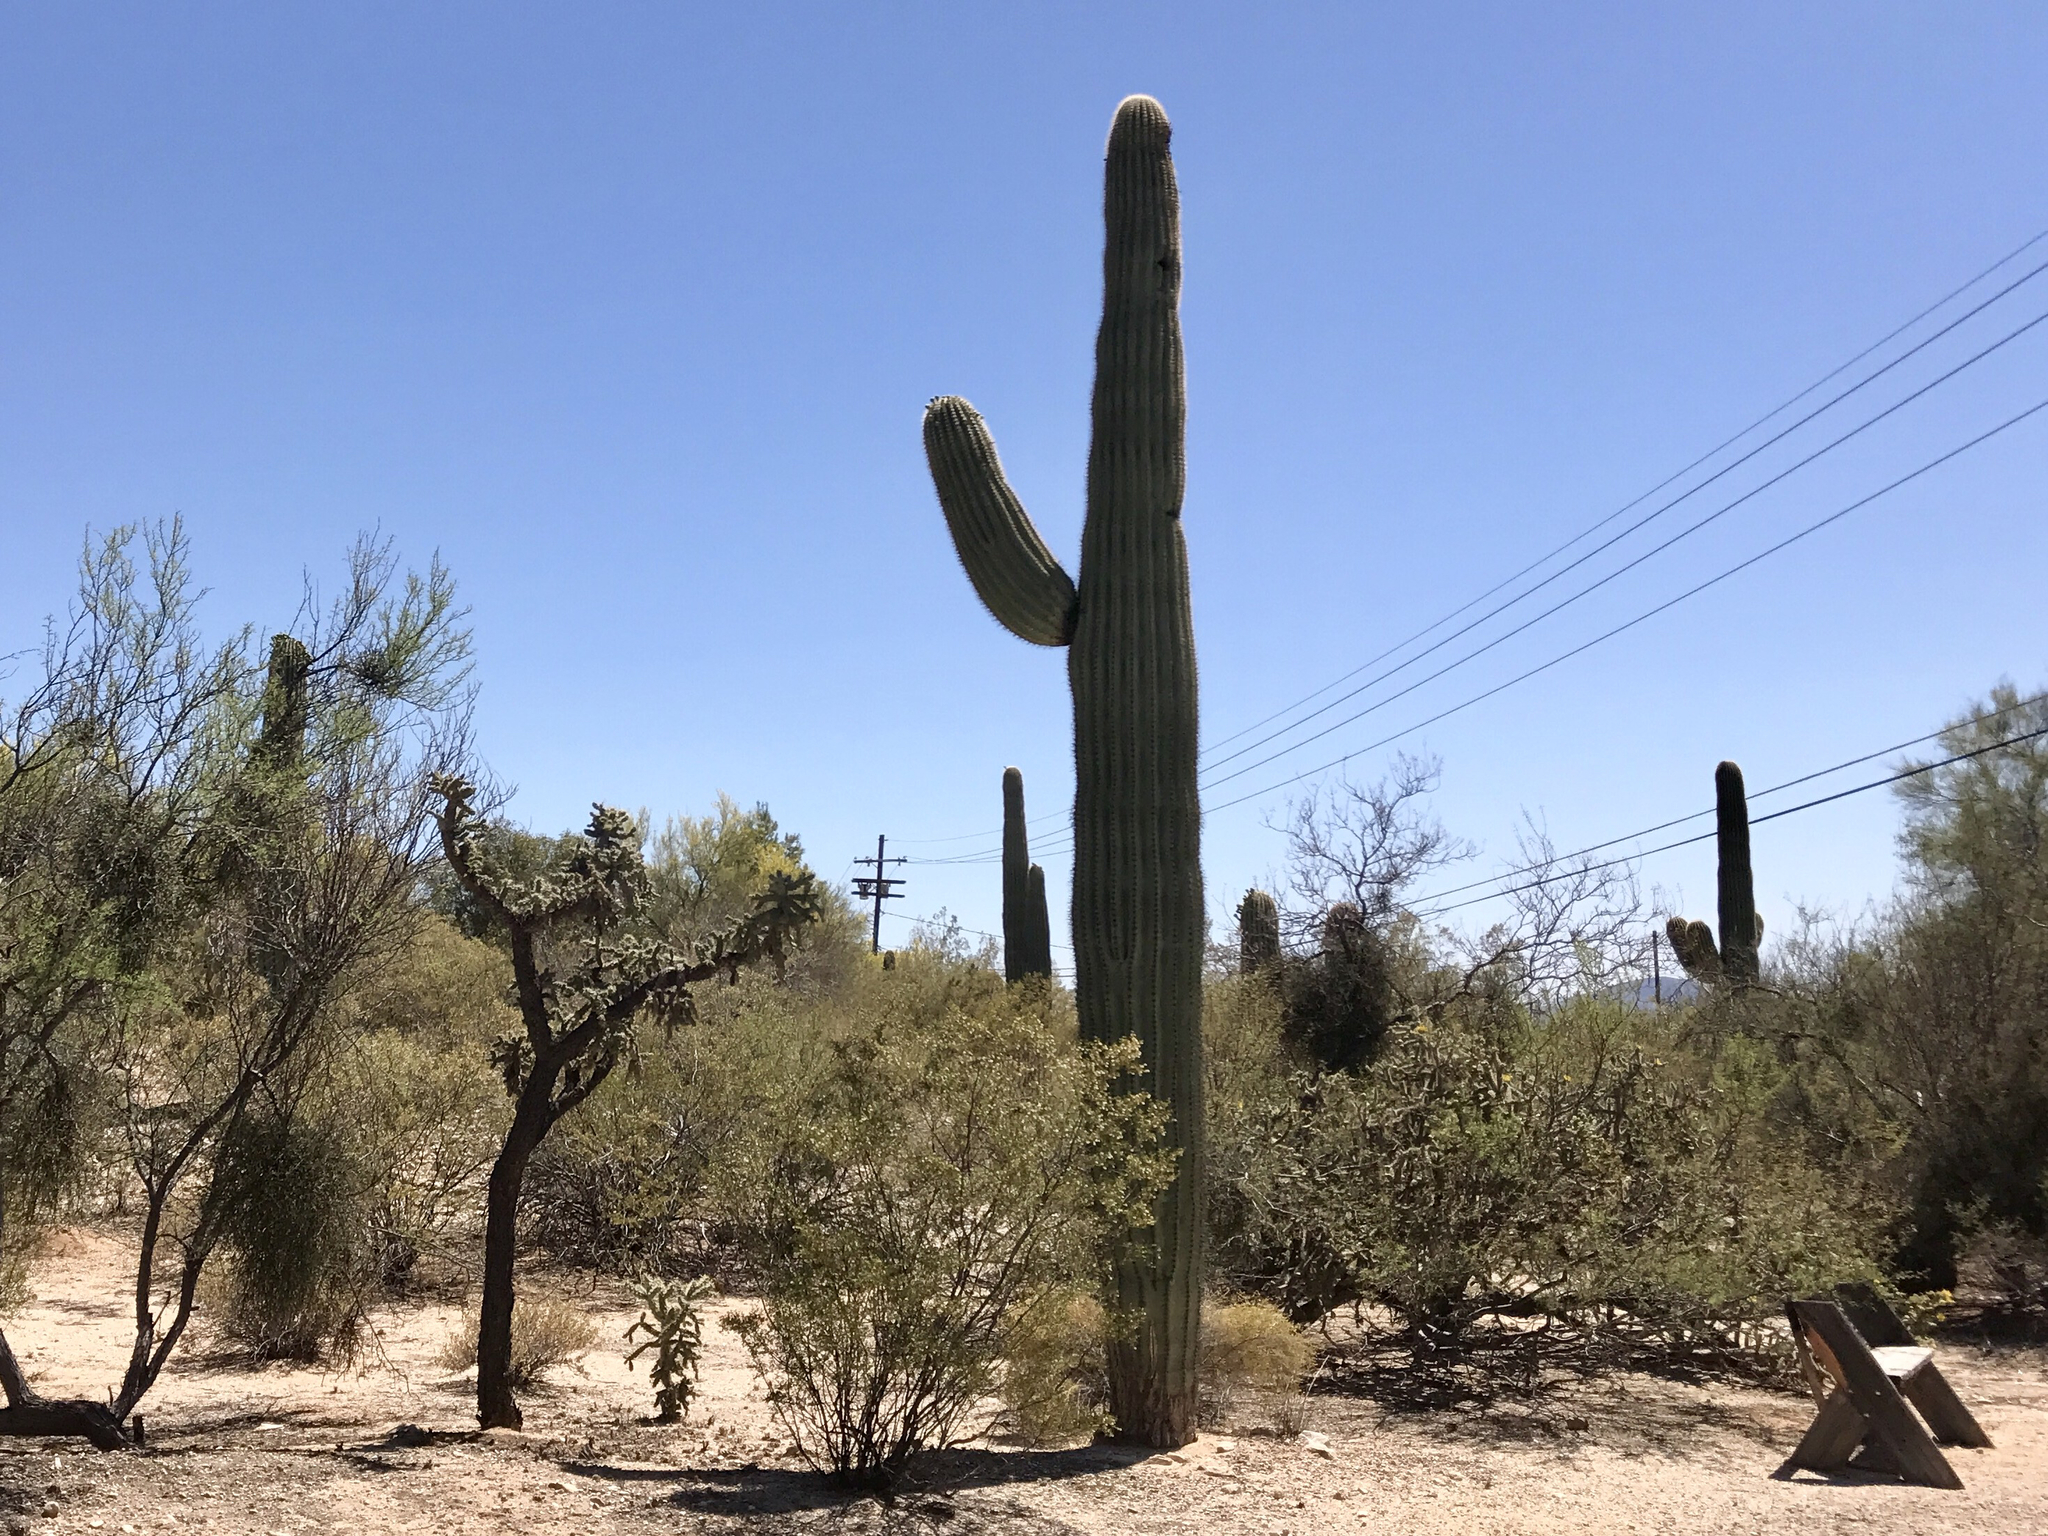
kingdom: Plantae
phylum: Tracheophyta
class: Magnoliopsida
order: Caryophyllales
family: Cactaceae
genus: Carnegiea
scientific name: Carnegiea gigantea
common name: Saguaro
